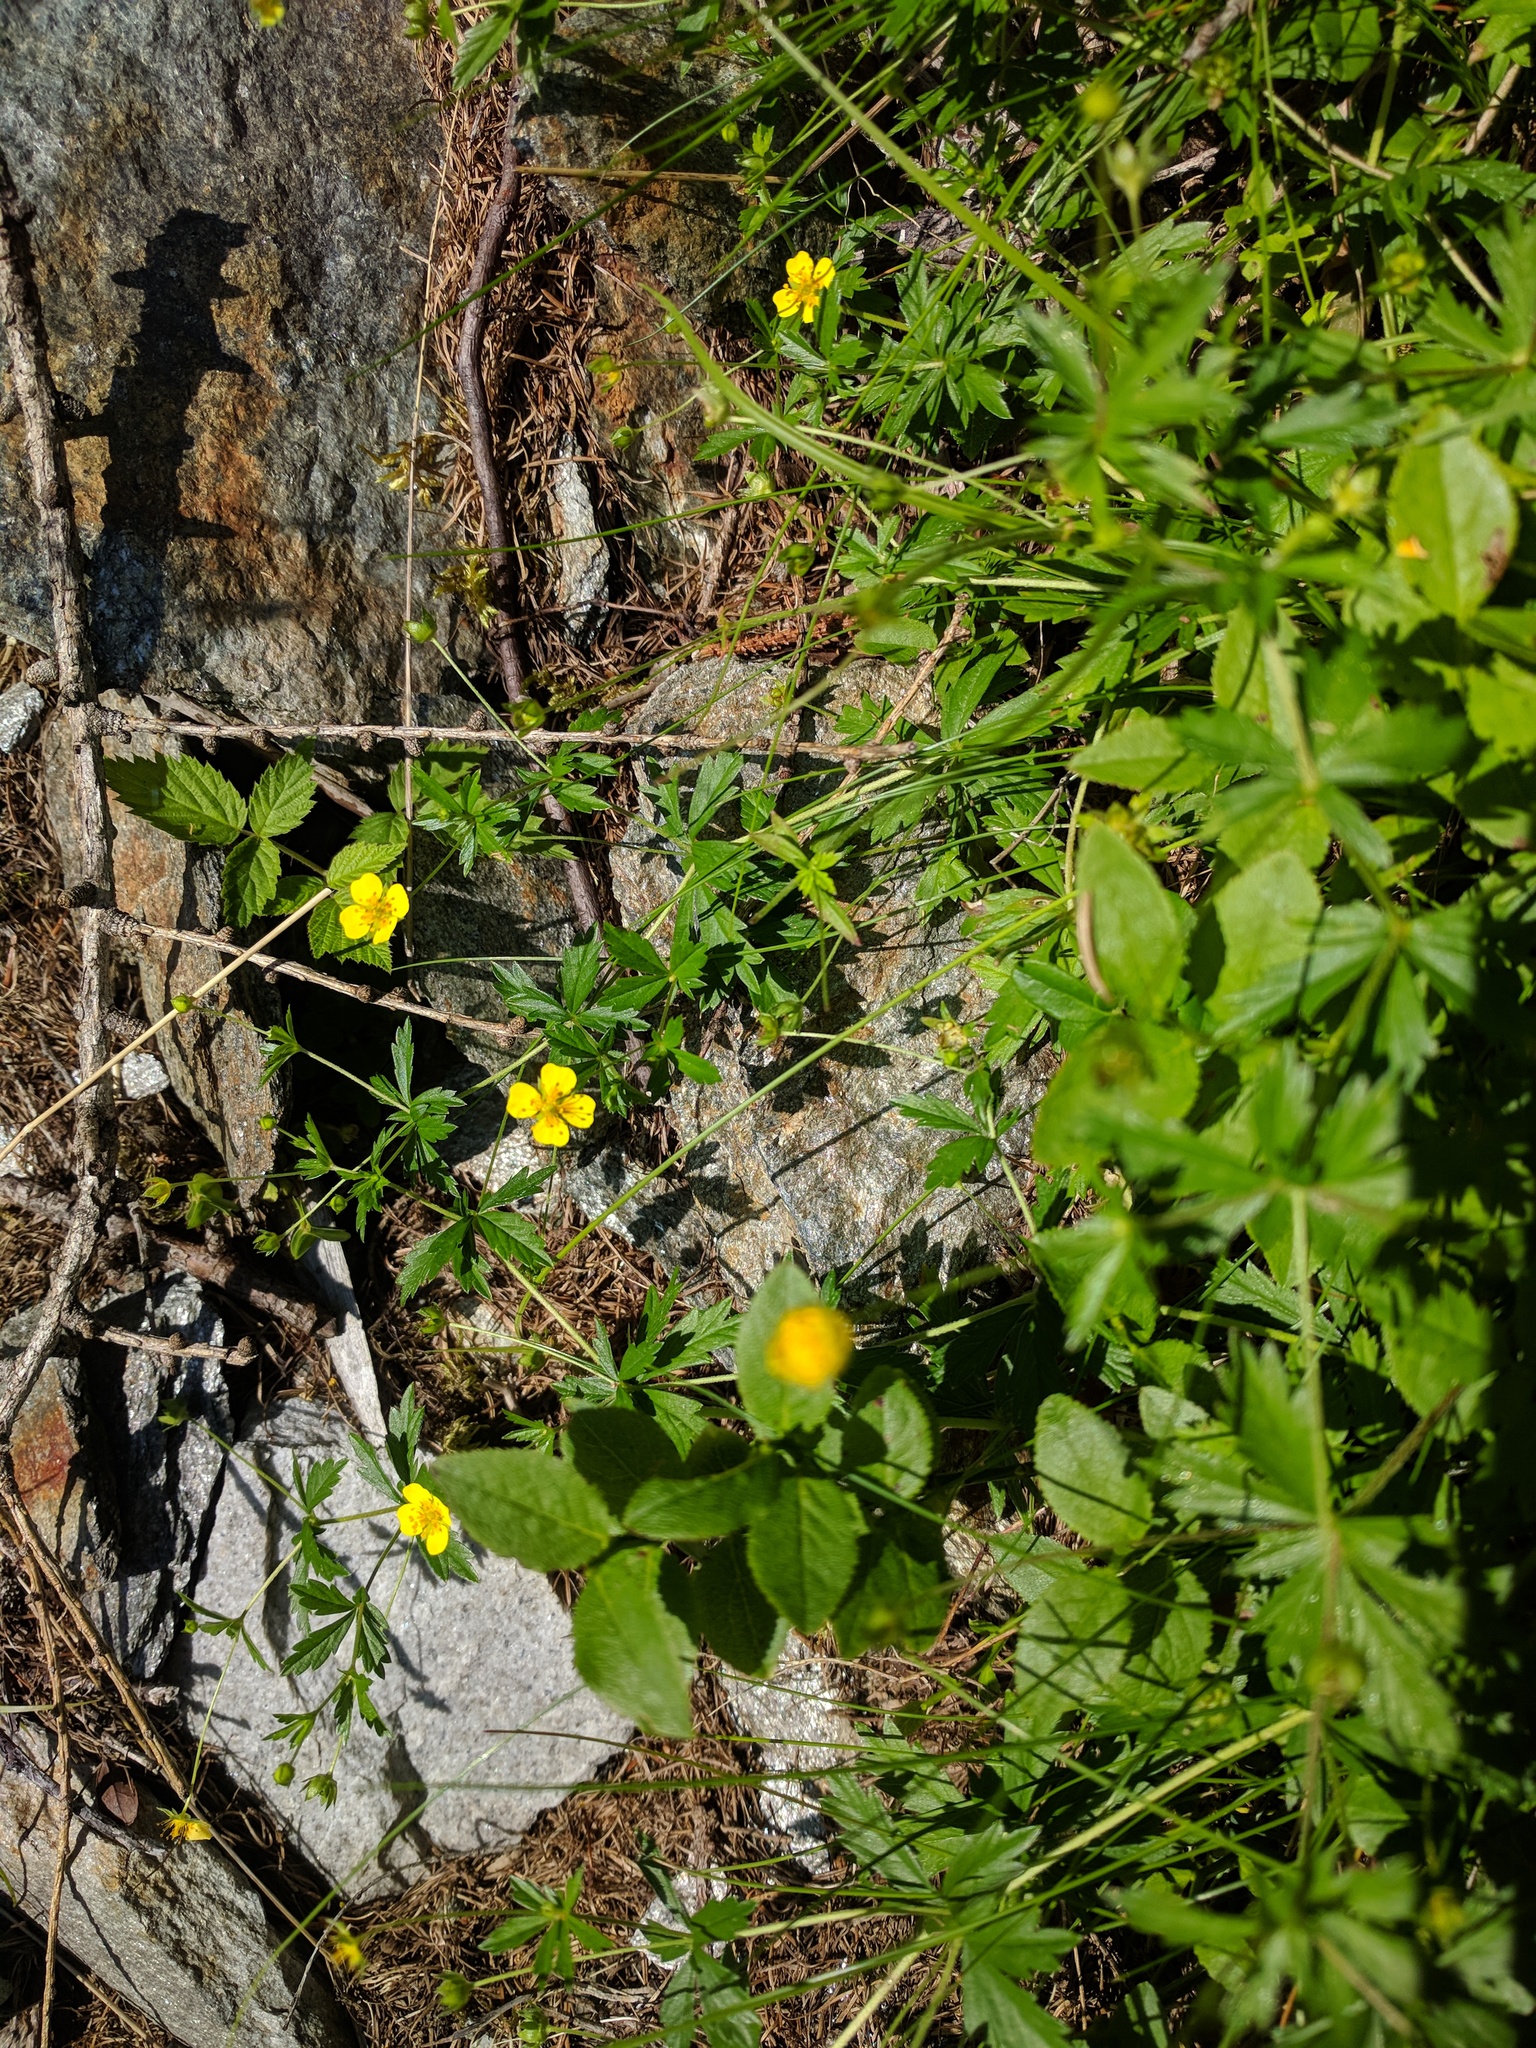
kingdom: Plantae
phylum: Tracheophyta
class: Magnoliopsida
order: Rosales
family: Rosaceae
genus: Potentilla
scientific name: Potentilla erecta
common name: Tormentil
